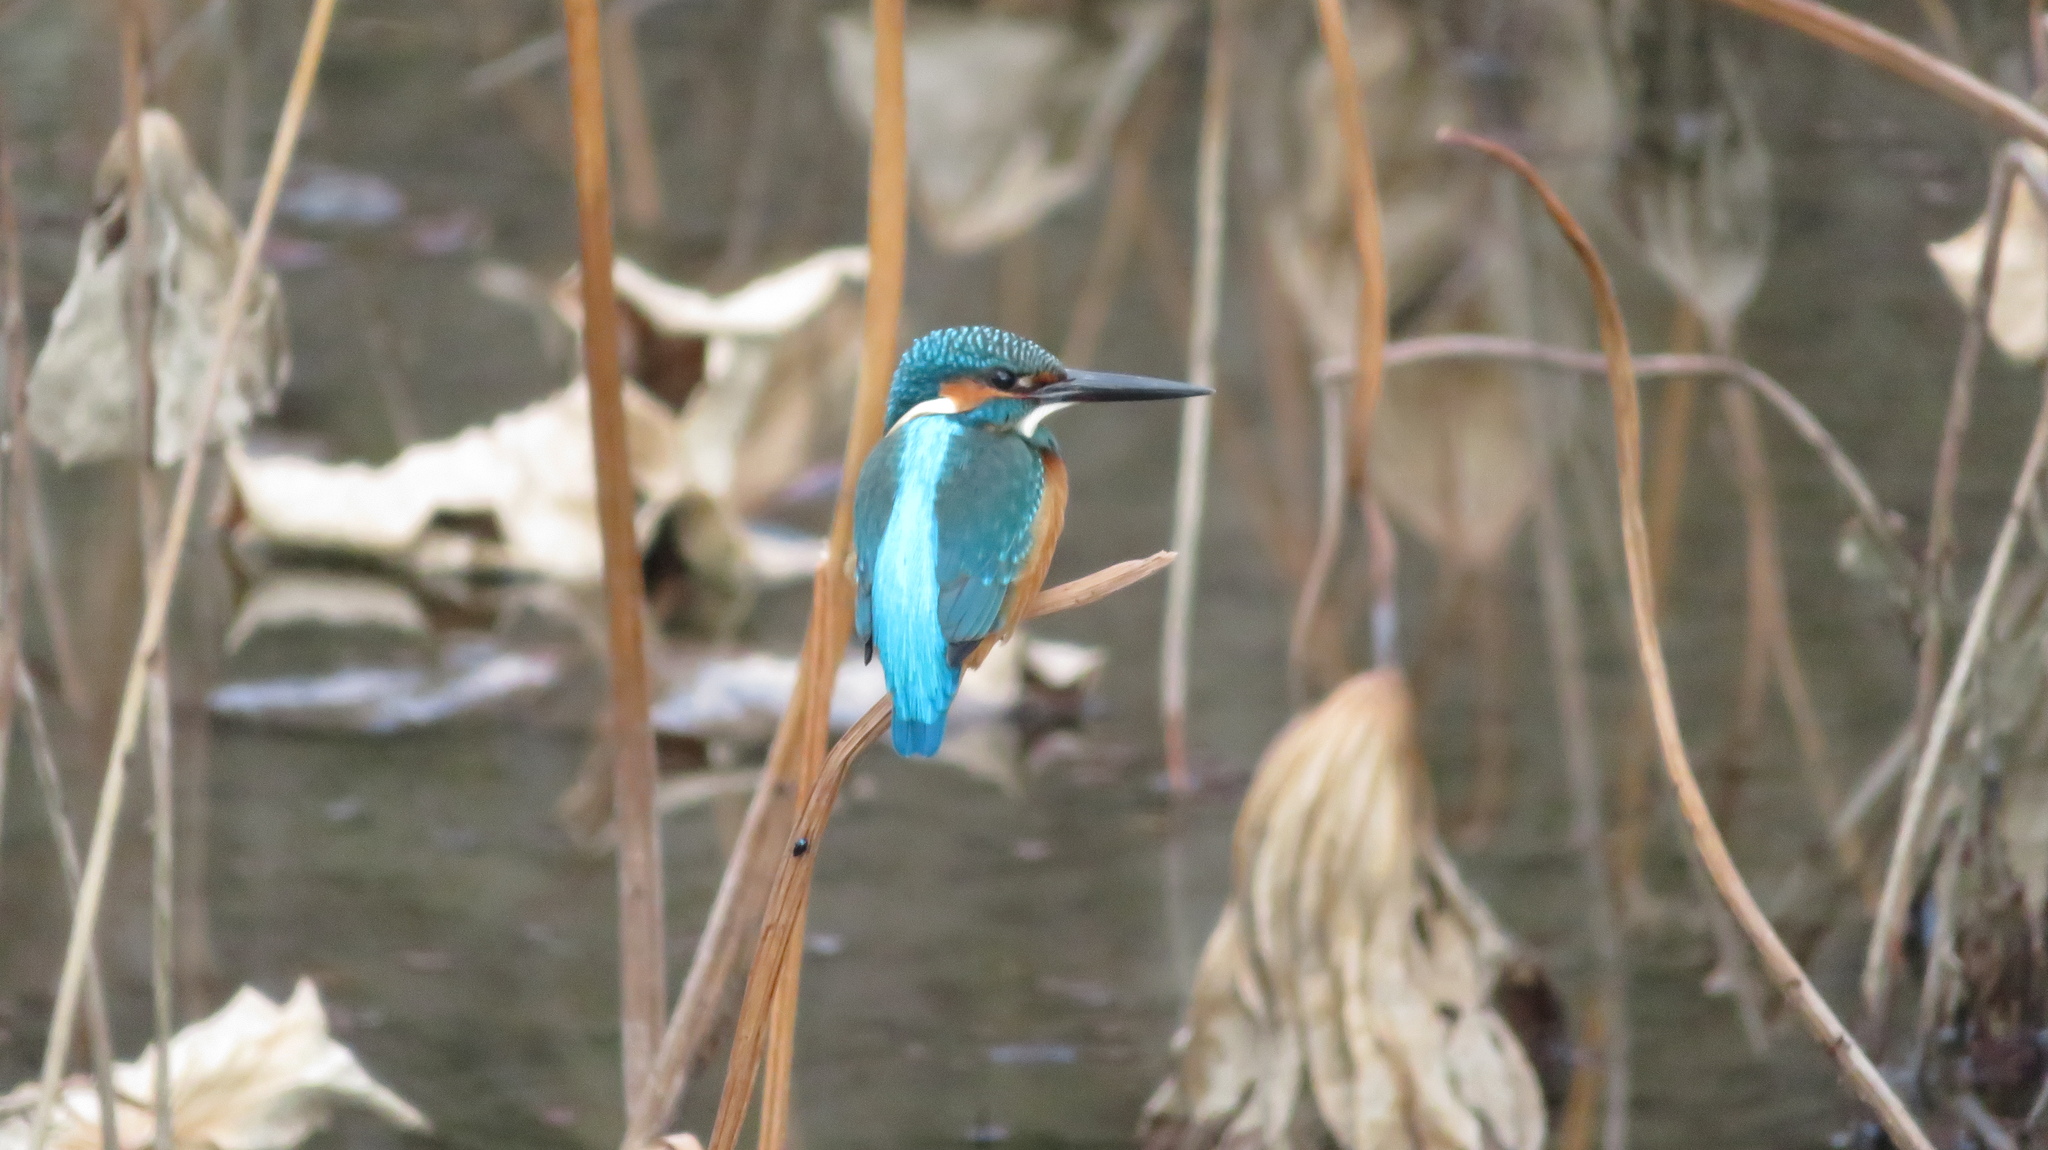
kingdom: Animalia
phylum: Chordata
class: Aves
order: Coraciiformes
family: Alcedinidae
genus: Alcedo
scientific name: Alcedo atthis
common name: Common kingfisher
